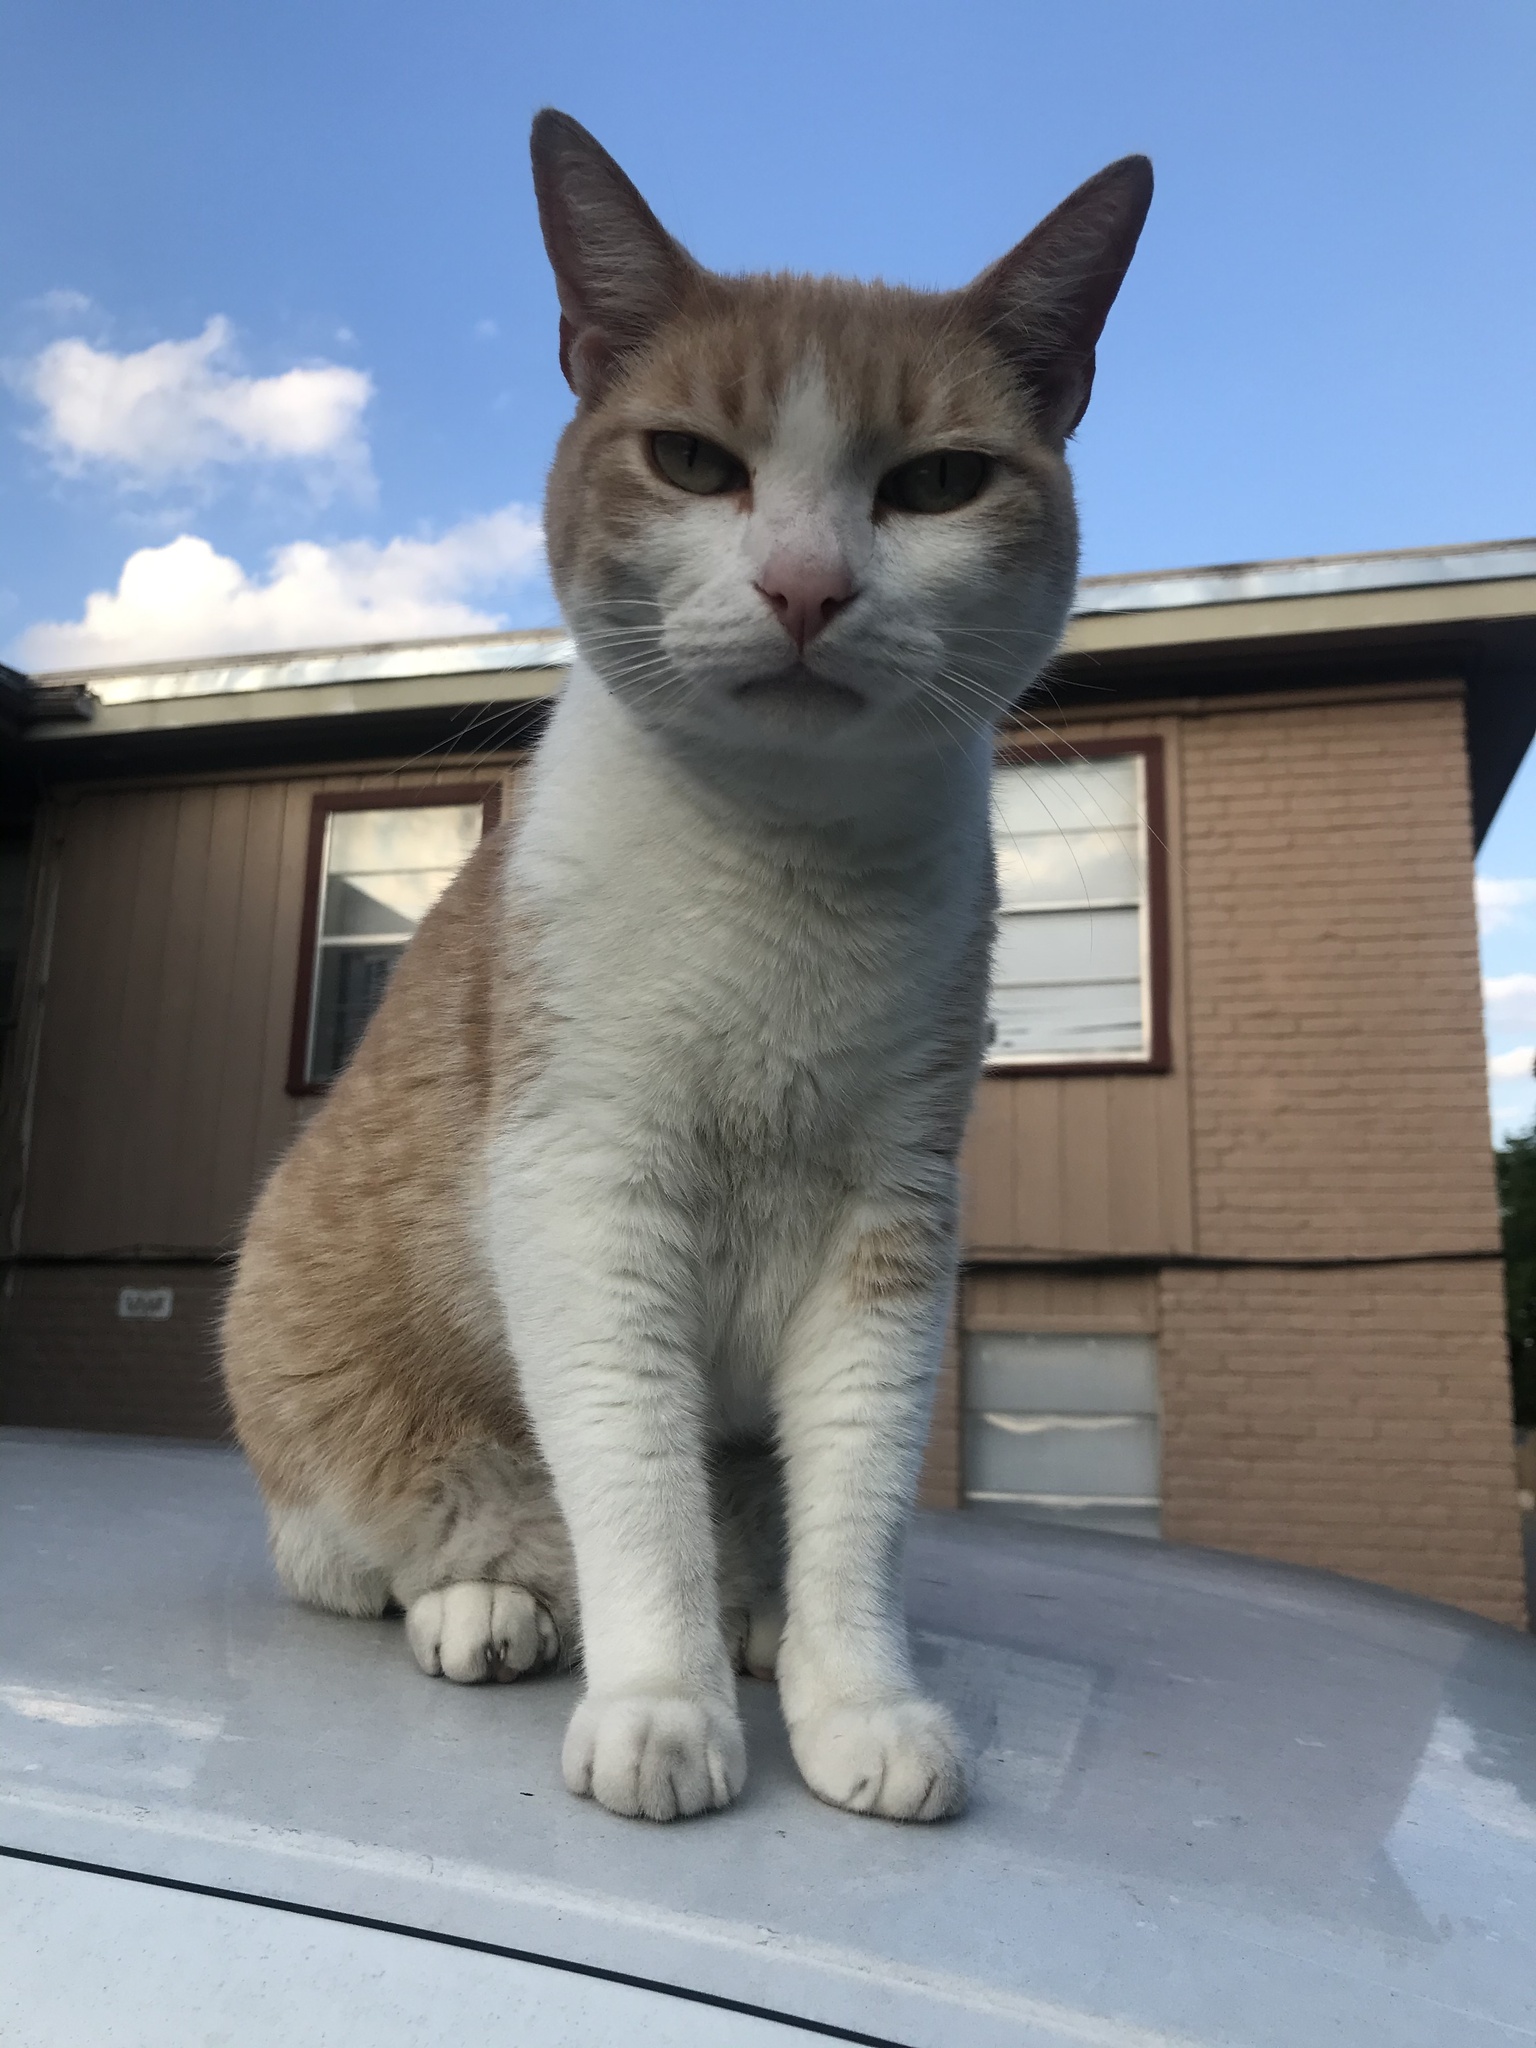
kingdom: Animalia
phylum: Chordata
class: Mammalia
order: Carnivora
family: Felidae
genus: Felis
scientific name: Felis catus
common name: Domestic cat
